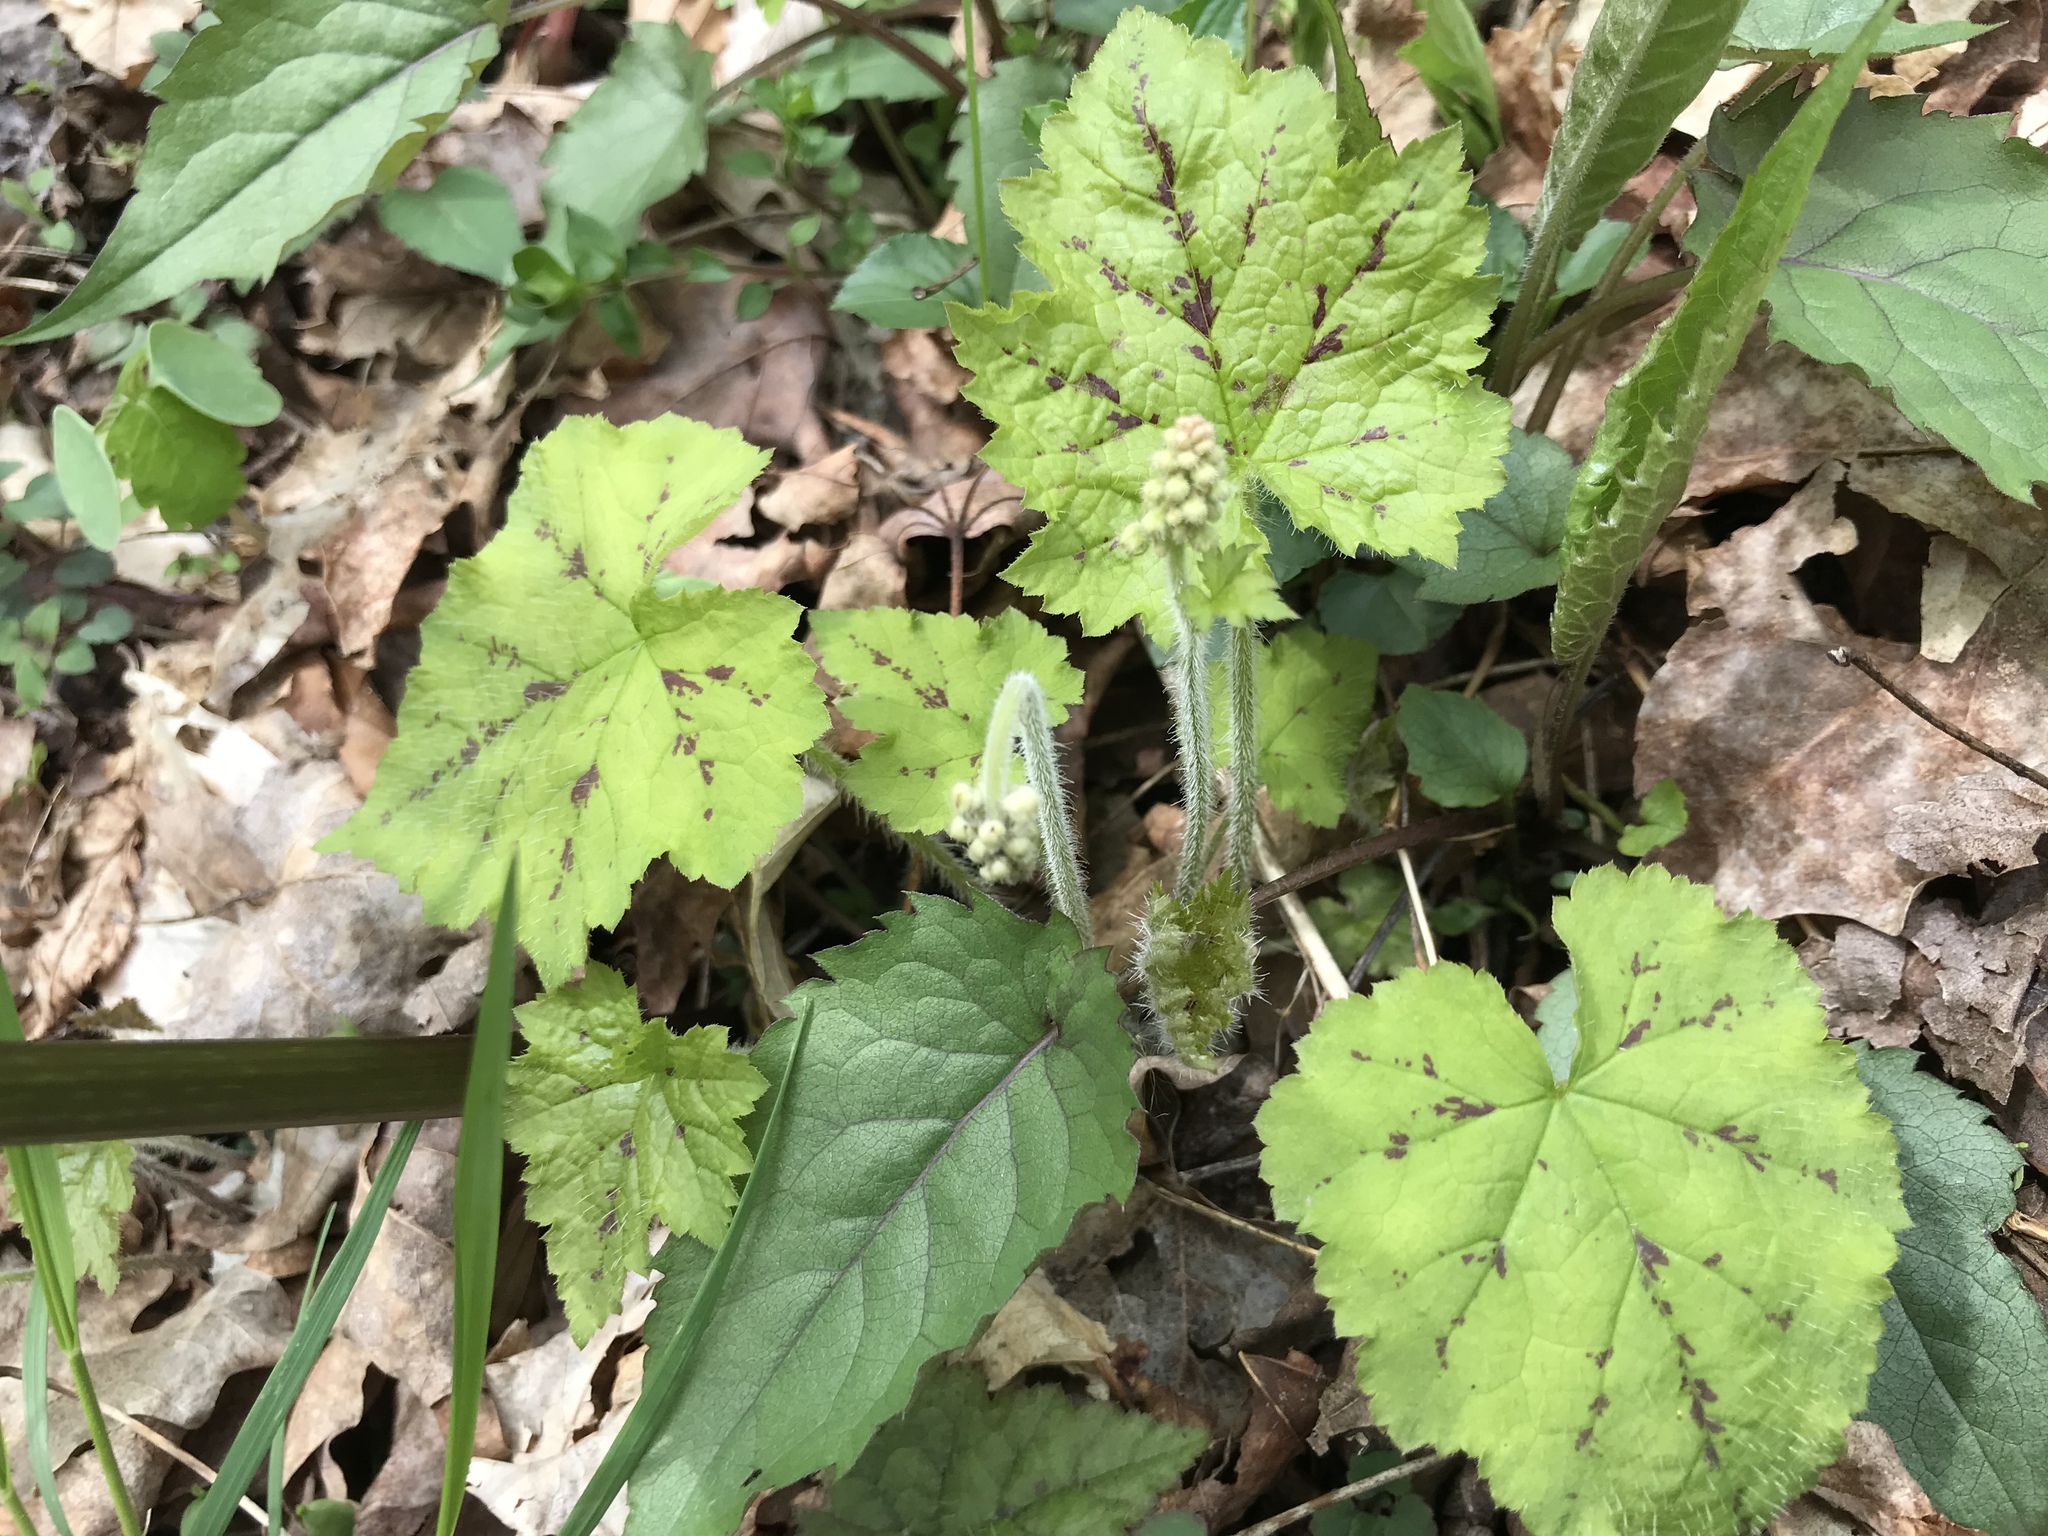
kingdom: Plantae
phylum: Tracheophyta
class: Magnoliopsida
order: Saxifragales
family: Saxifragaceae
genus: Tiarella
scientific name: Tiarella stolonifera
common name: Stoloniferous foamflower
